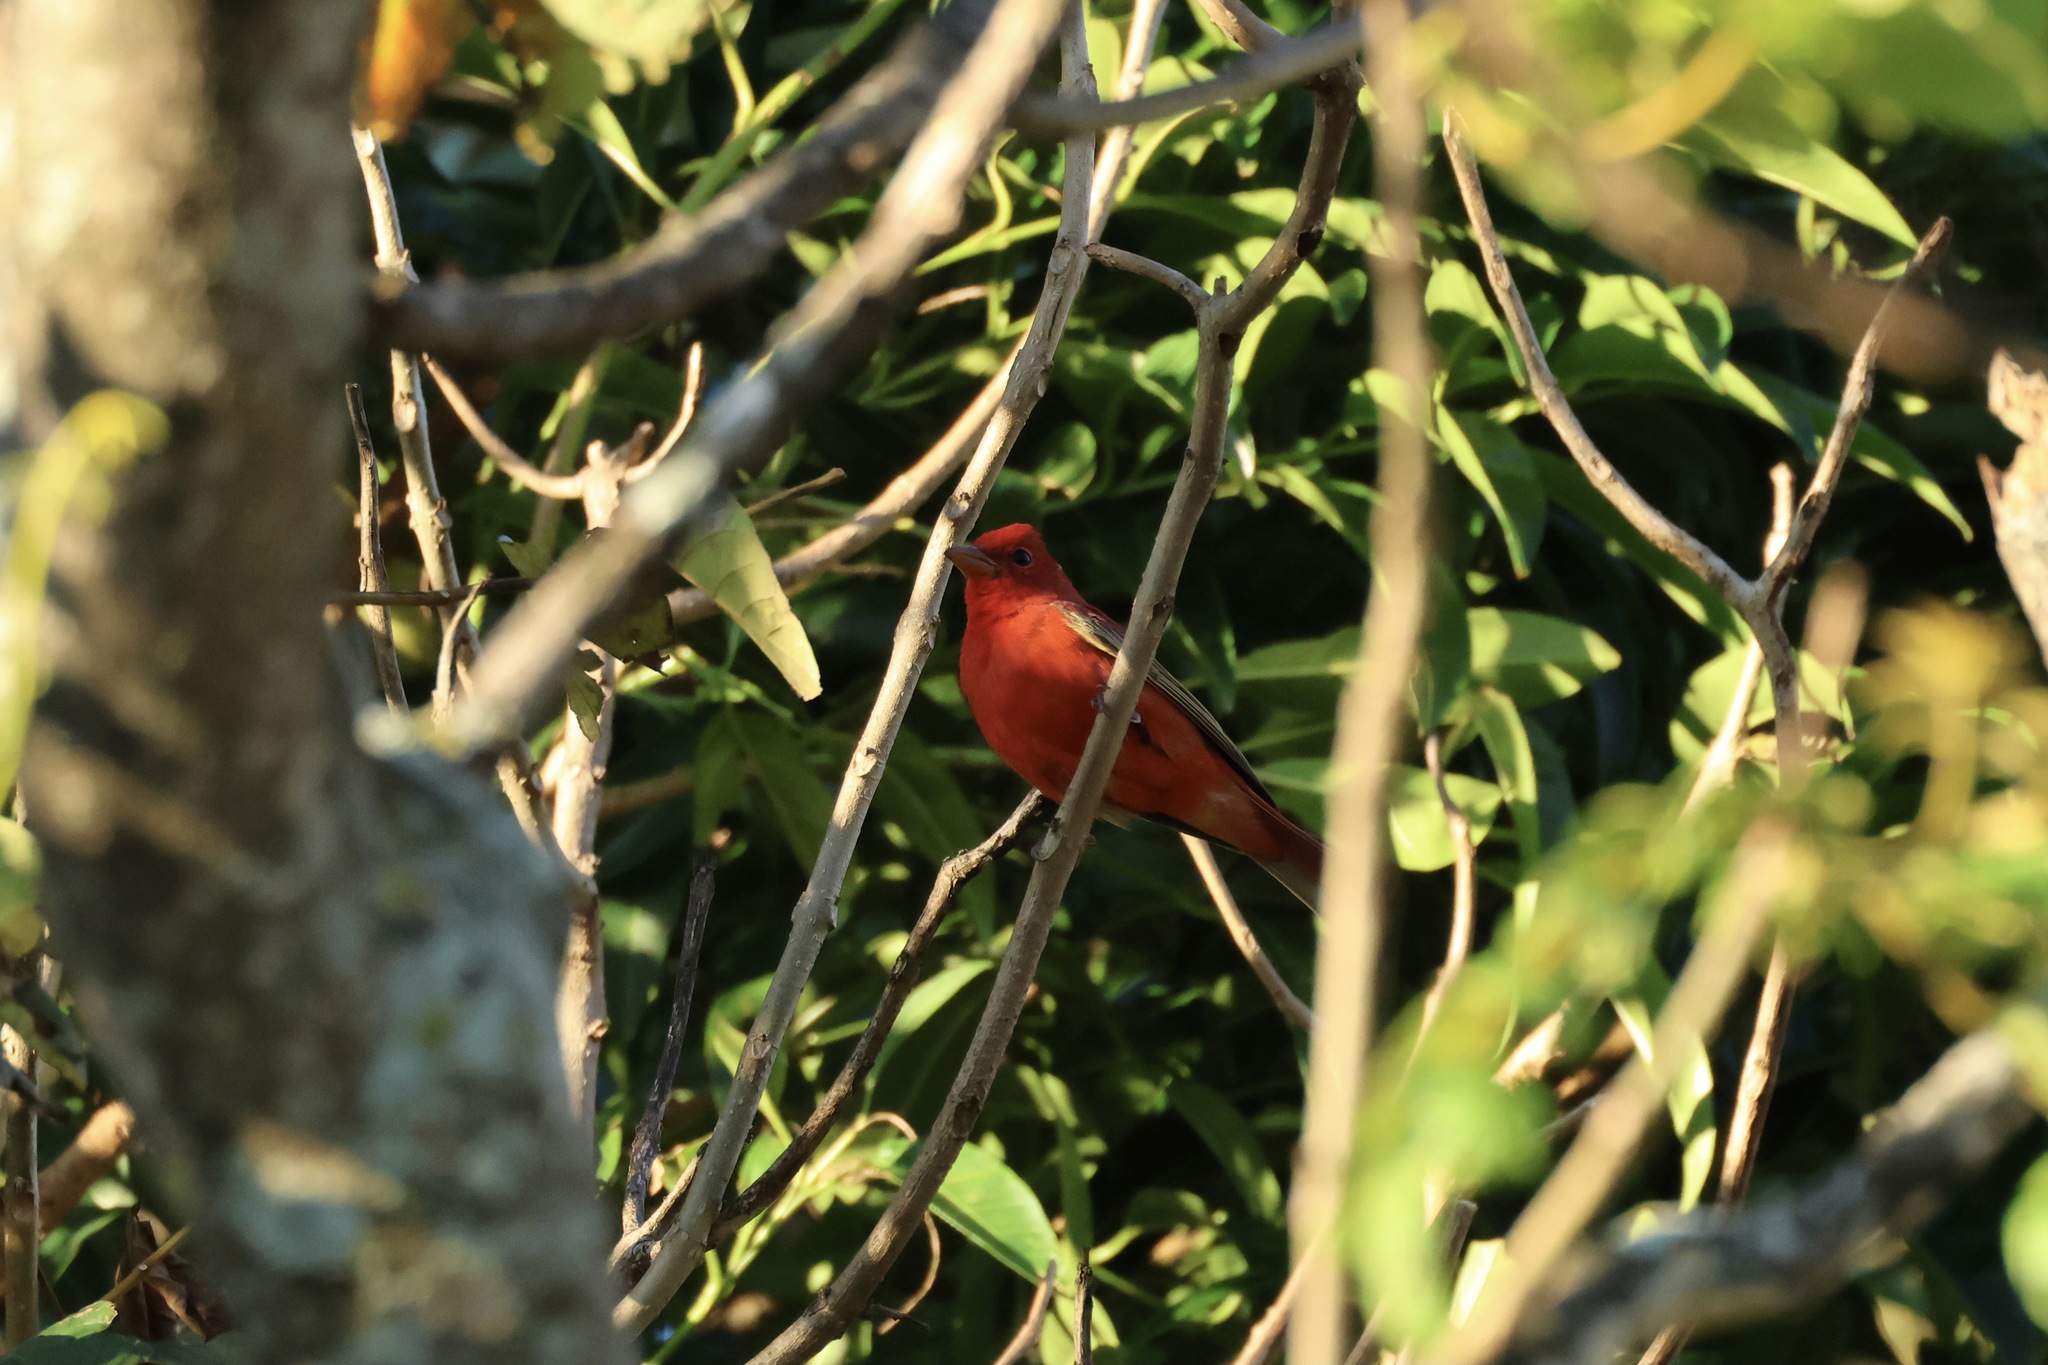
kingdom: Animalia
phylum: Chordata
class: Aves
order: Passeriformes
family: Cardinalidae
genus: Piranga
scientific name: Piranga rubra
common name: Summer tanager
